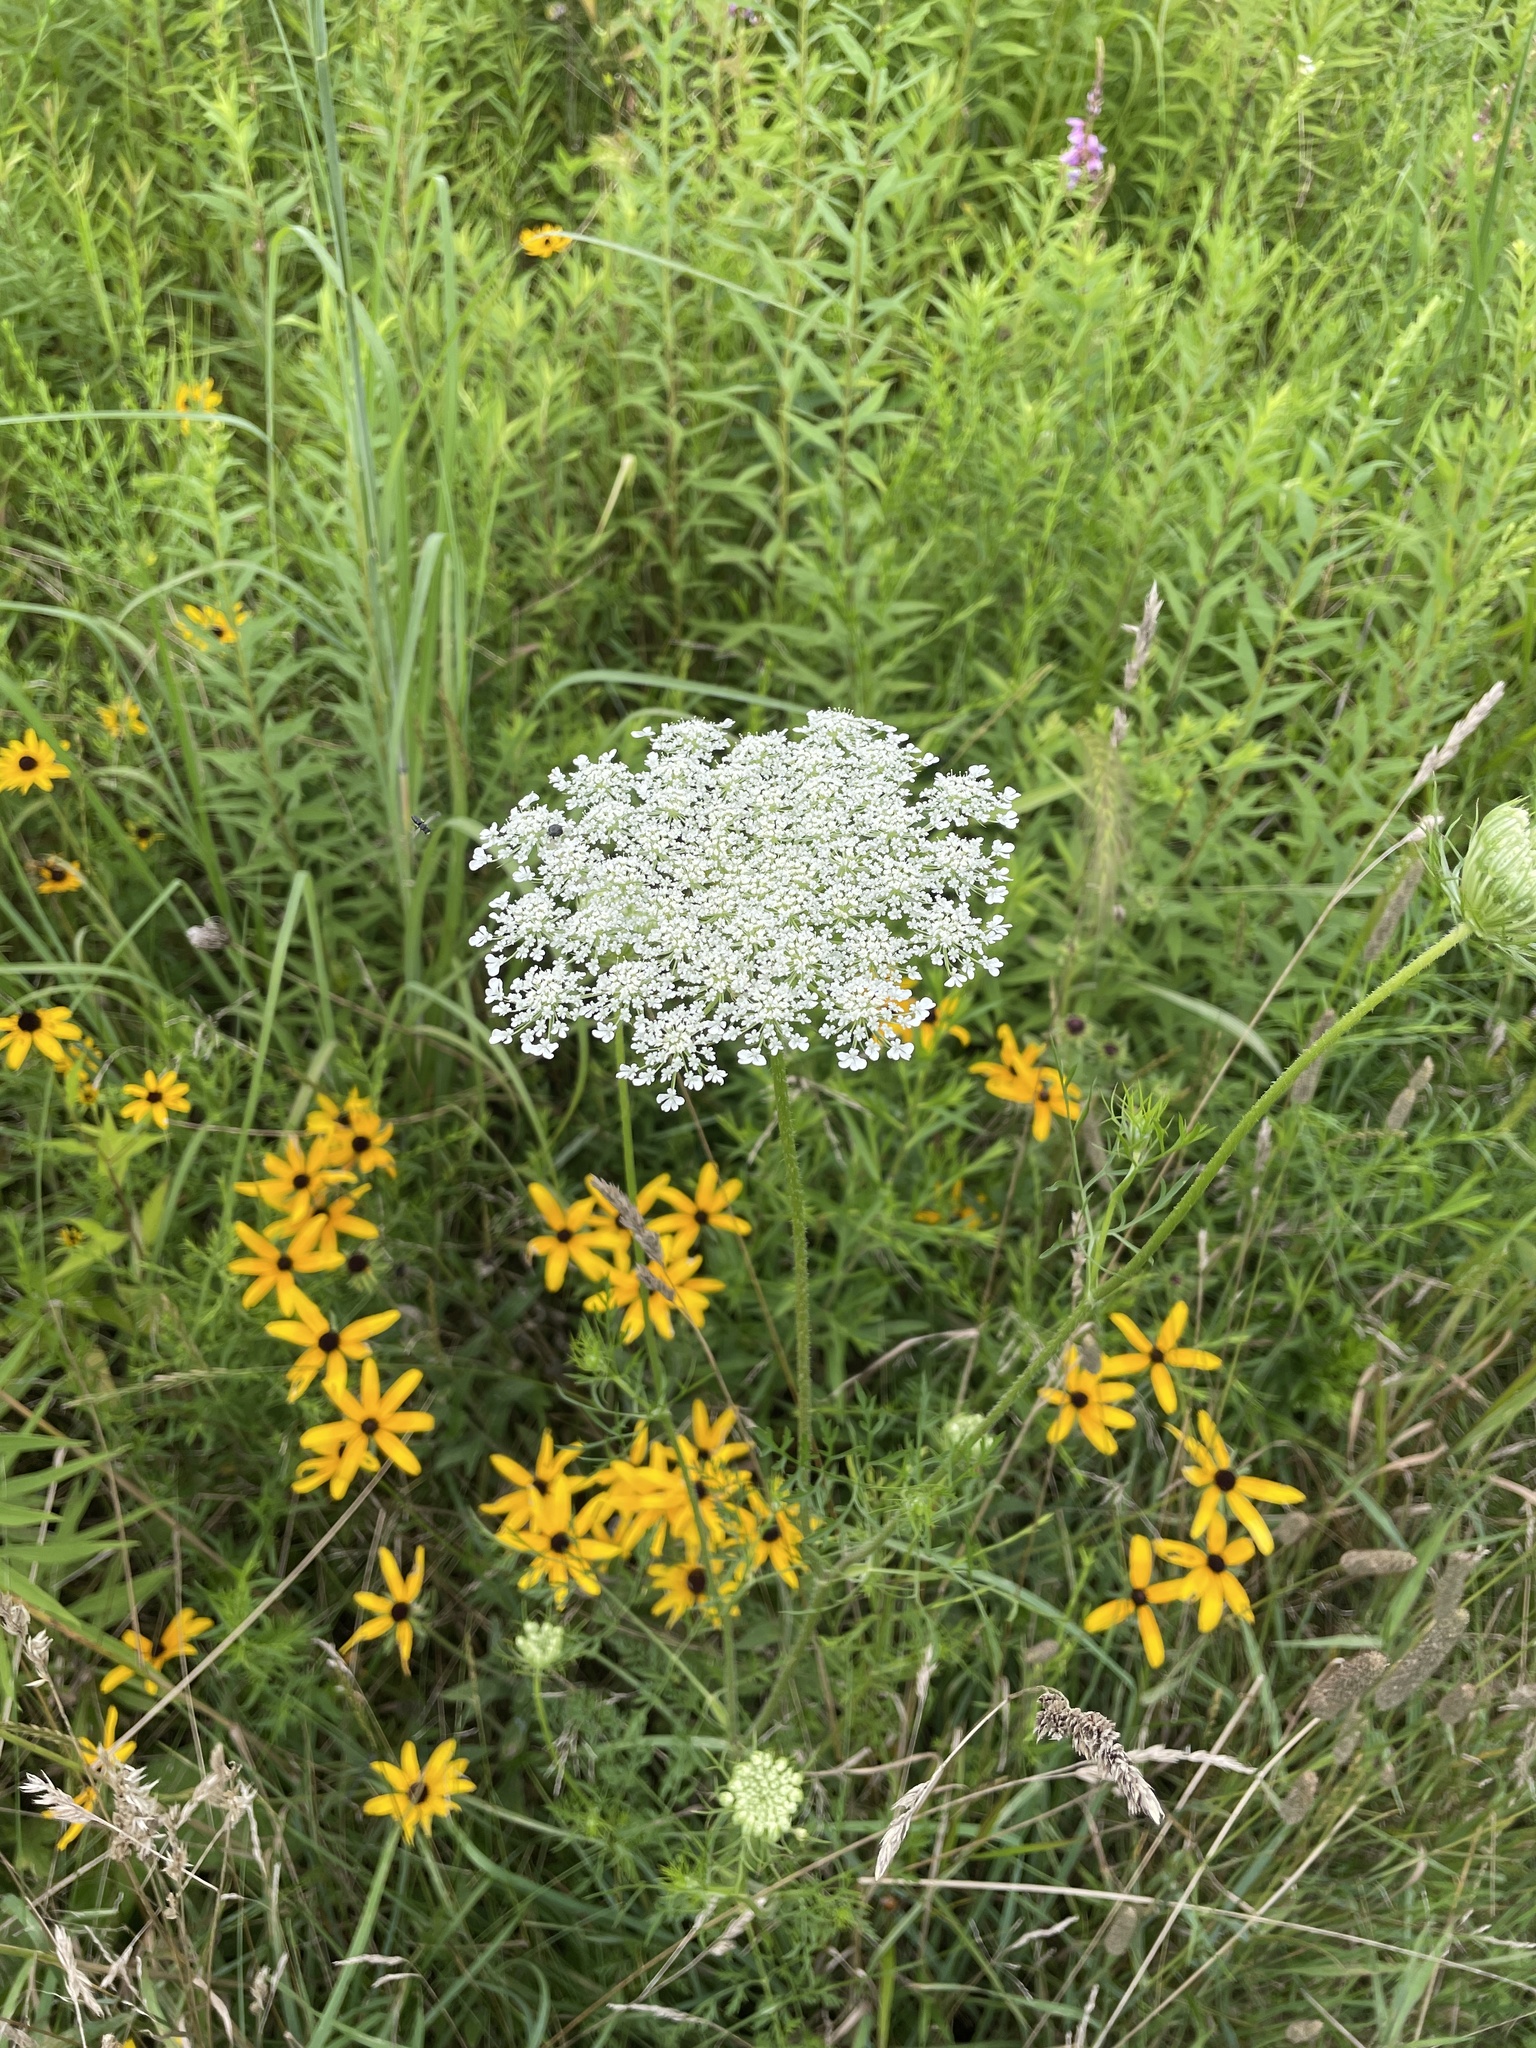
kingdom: Plantae
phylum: Tracheophyta
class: Magnoliopsida
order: Apiales
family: Apiaceae
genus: Daucus
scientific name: Daucus carota
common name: Wild carrot
